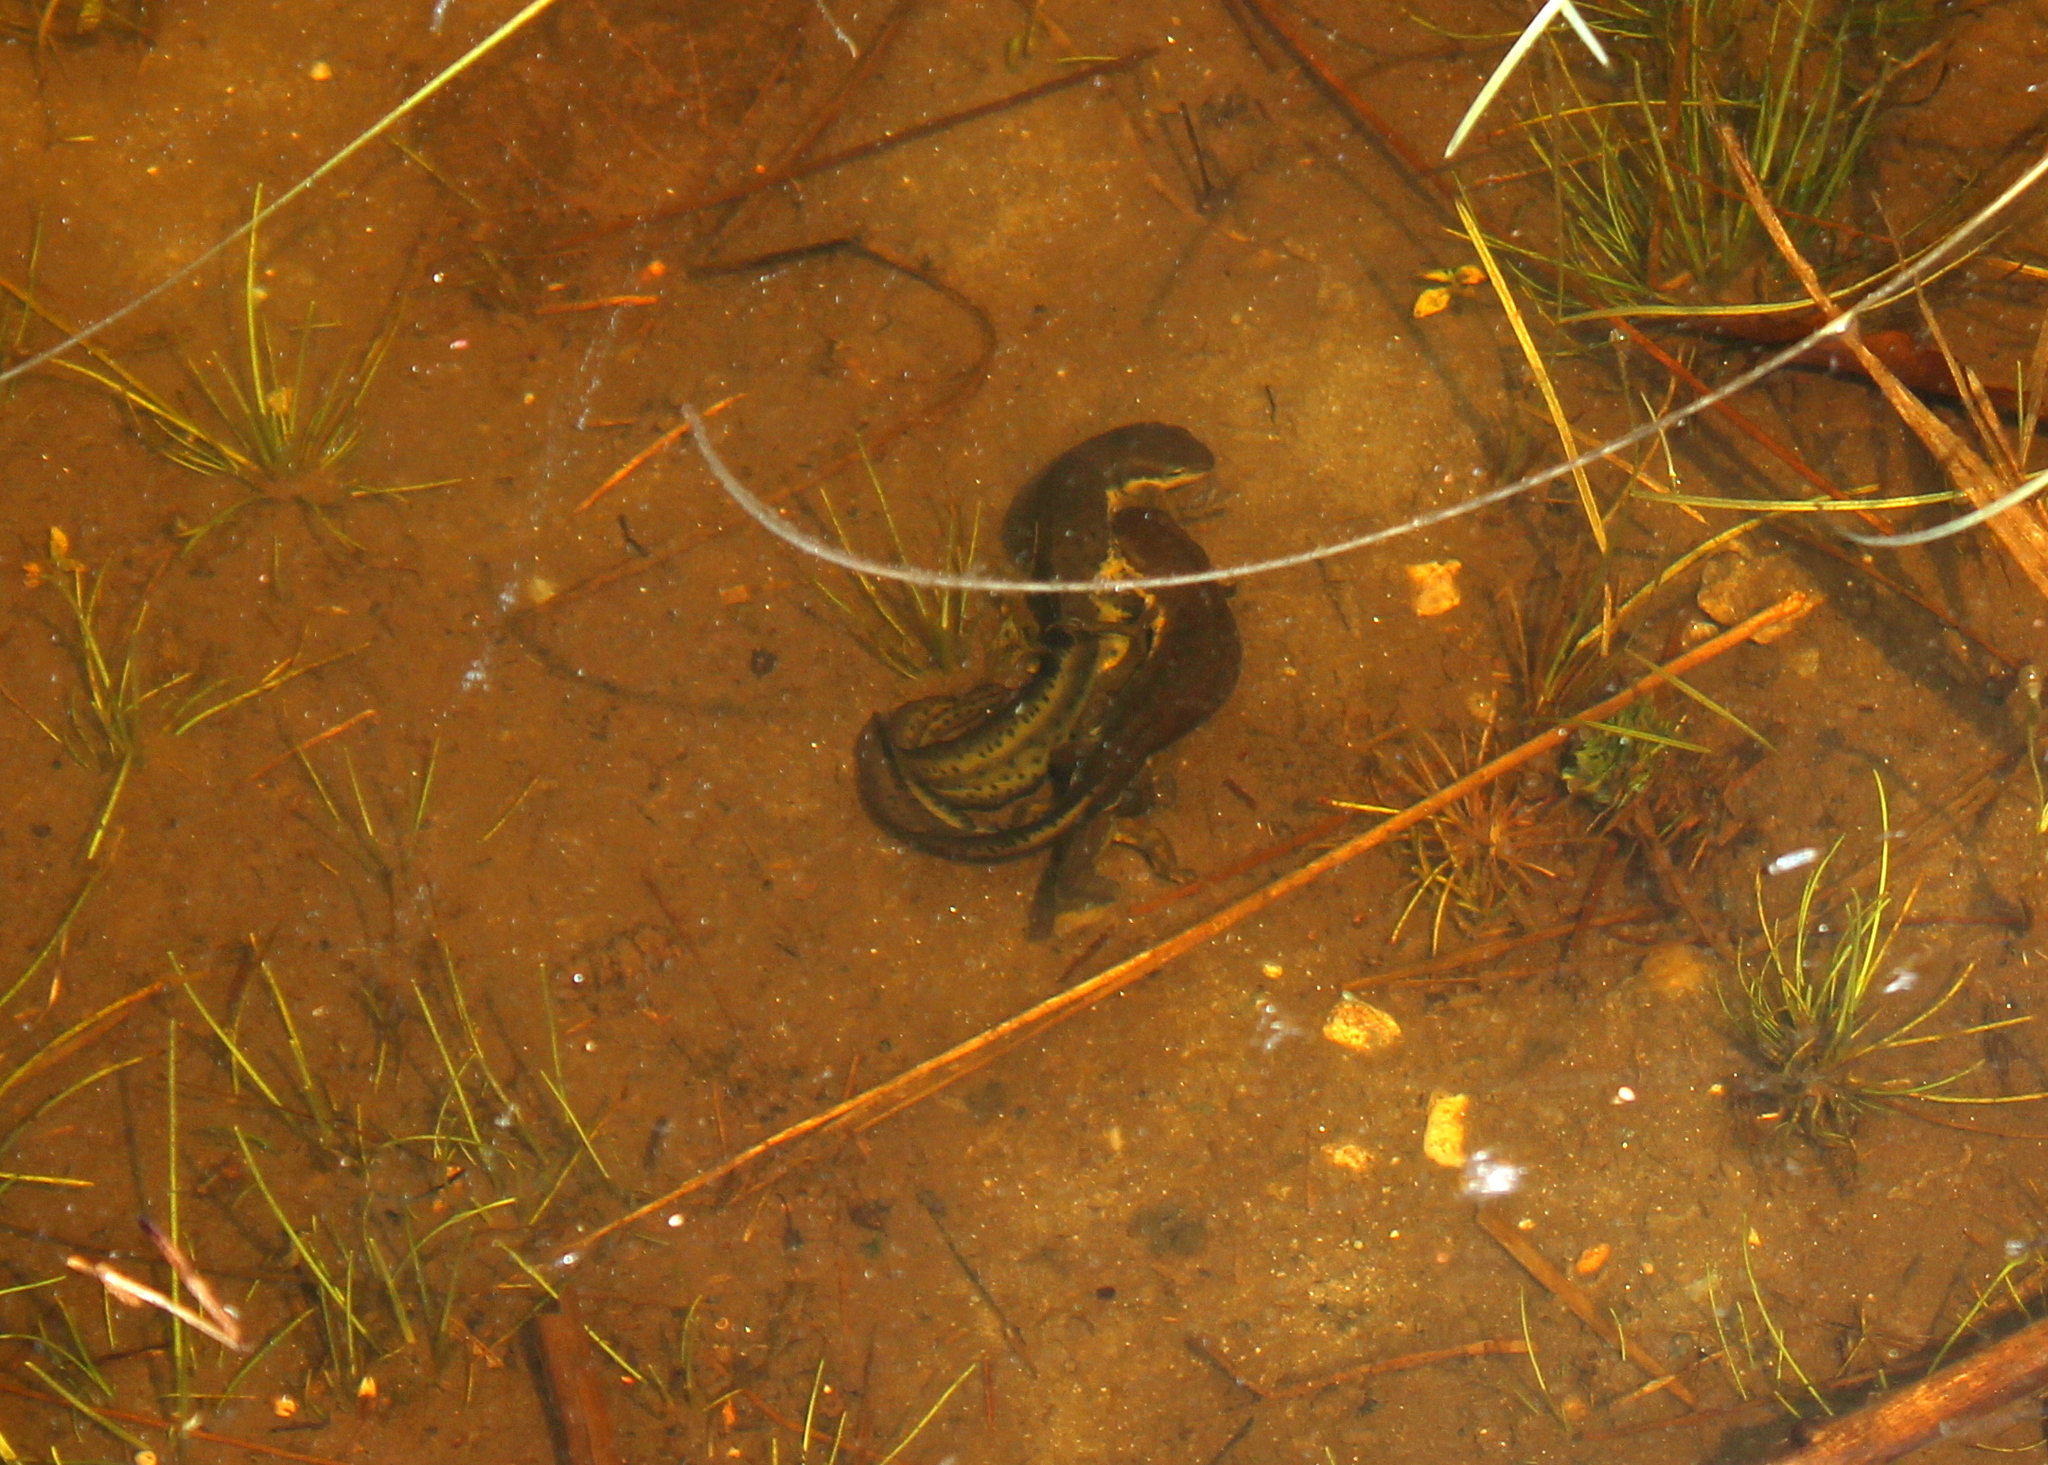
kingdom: Animalia
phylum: Chordata
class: Amphibia
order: Caudata
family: Salamandridae
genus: Notophthalmus
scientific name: Notophthalmus viridescens
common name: Eastern newt
